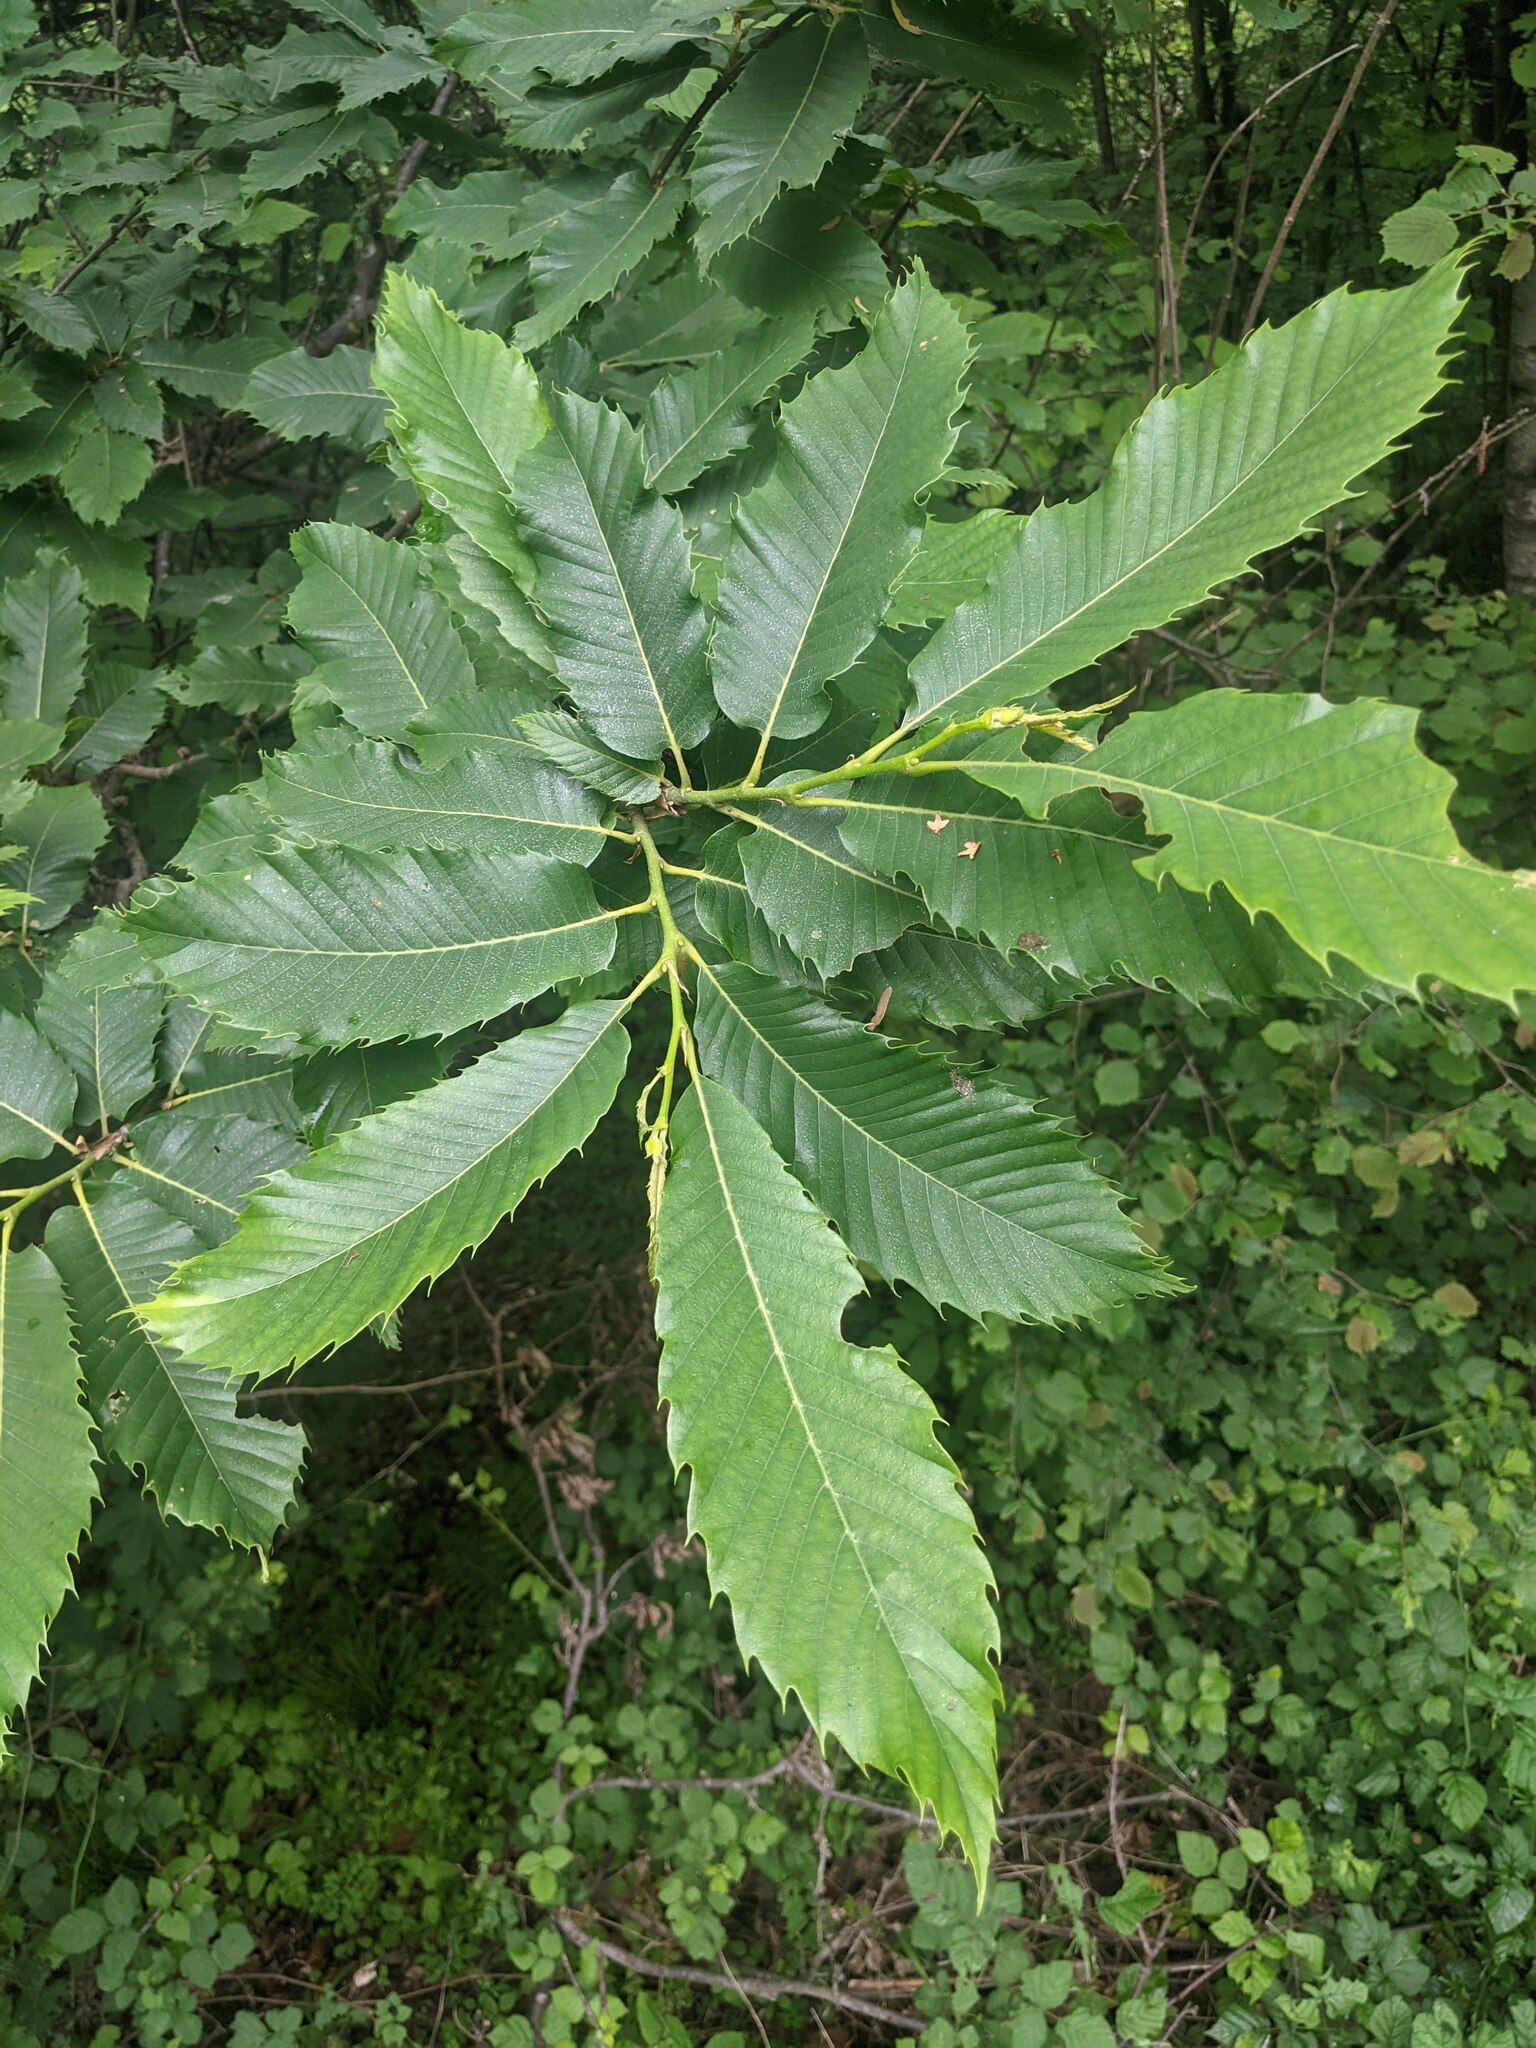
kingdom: Plantae
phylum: Tracheophyta
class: Magnoliopsida
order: Fagales
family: Fagaceae
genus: Castanea
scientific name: Castanea sativa
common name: Sweet chestnut
